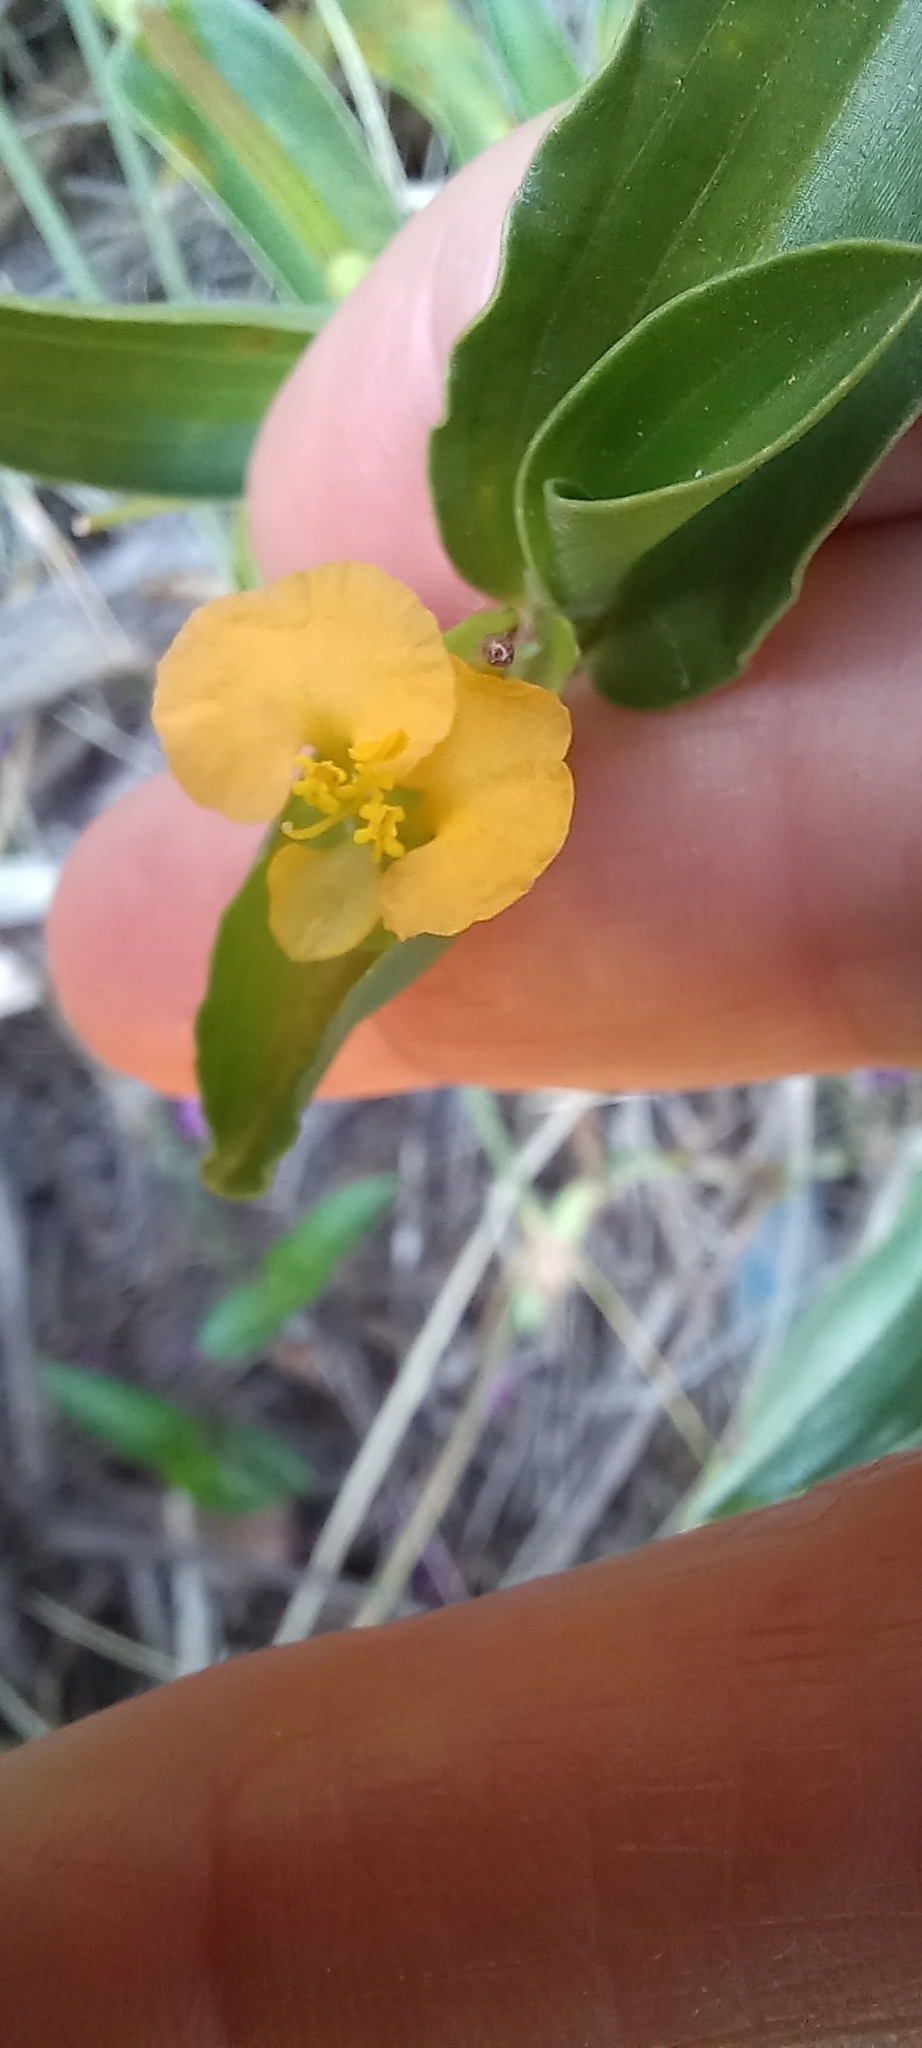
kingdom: Plantae
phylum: Tracheophyta
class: Liliopsida
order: Commelinales
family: Commelinaceae
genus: Commelina
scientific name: Commelina africana
